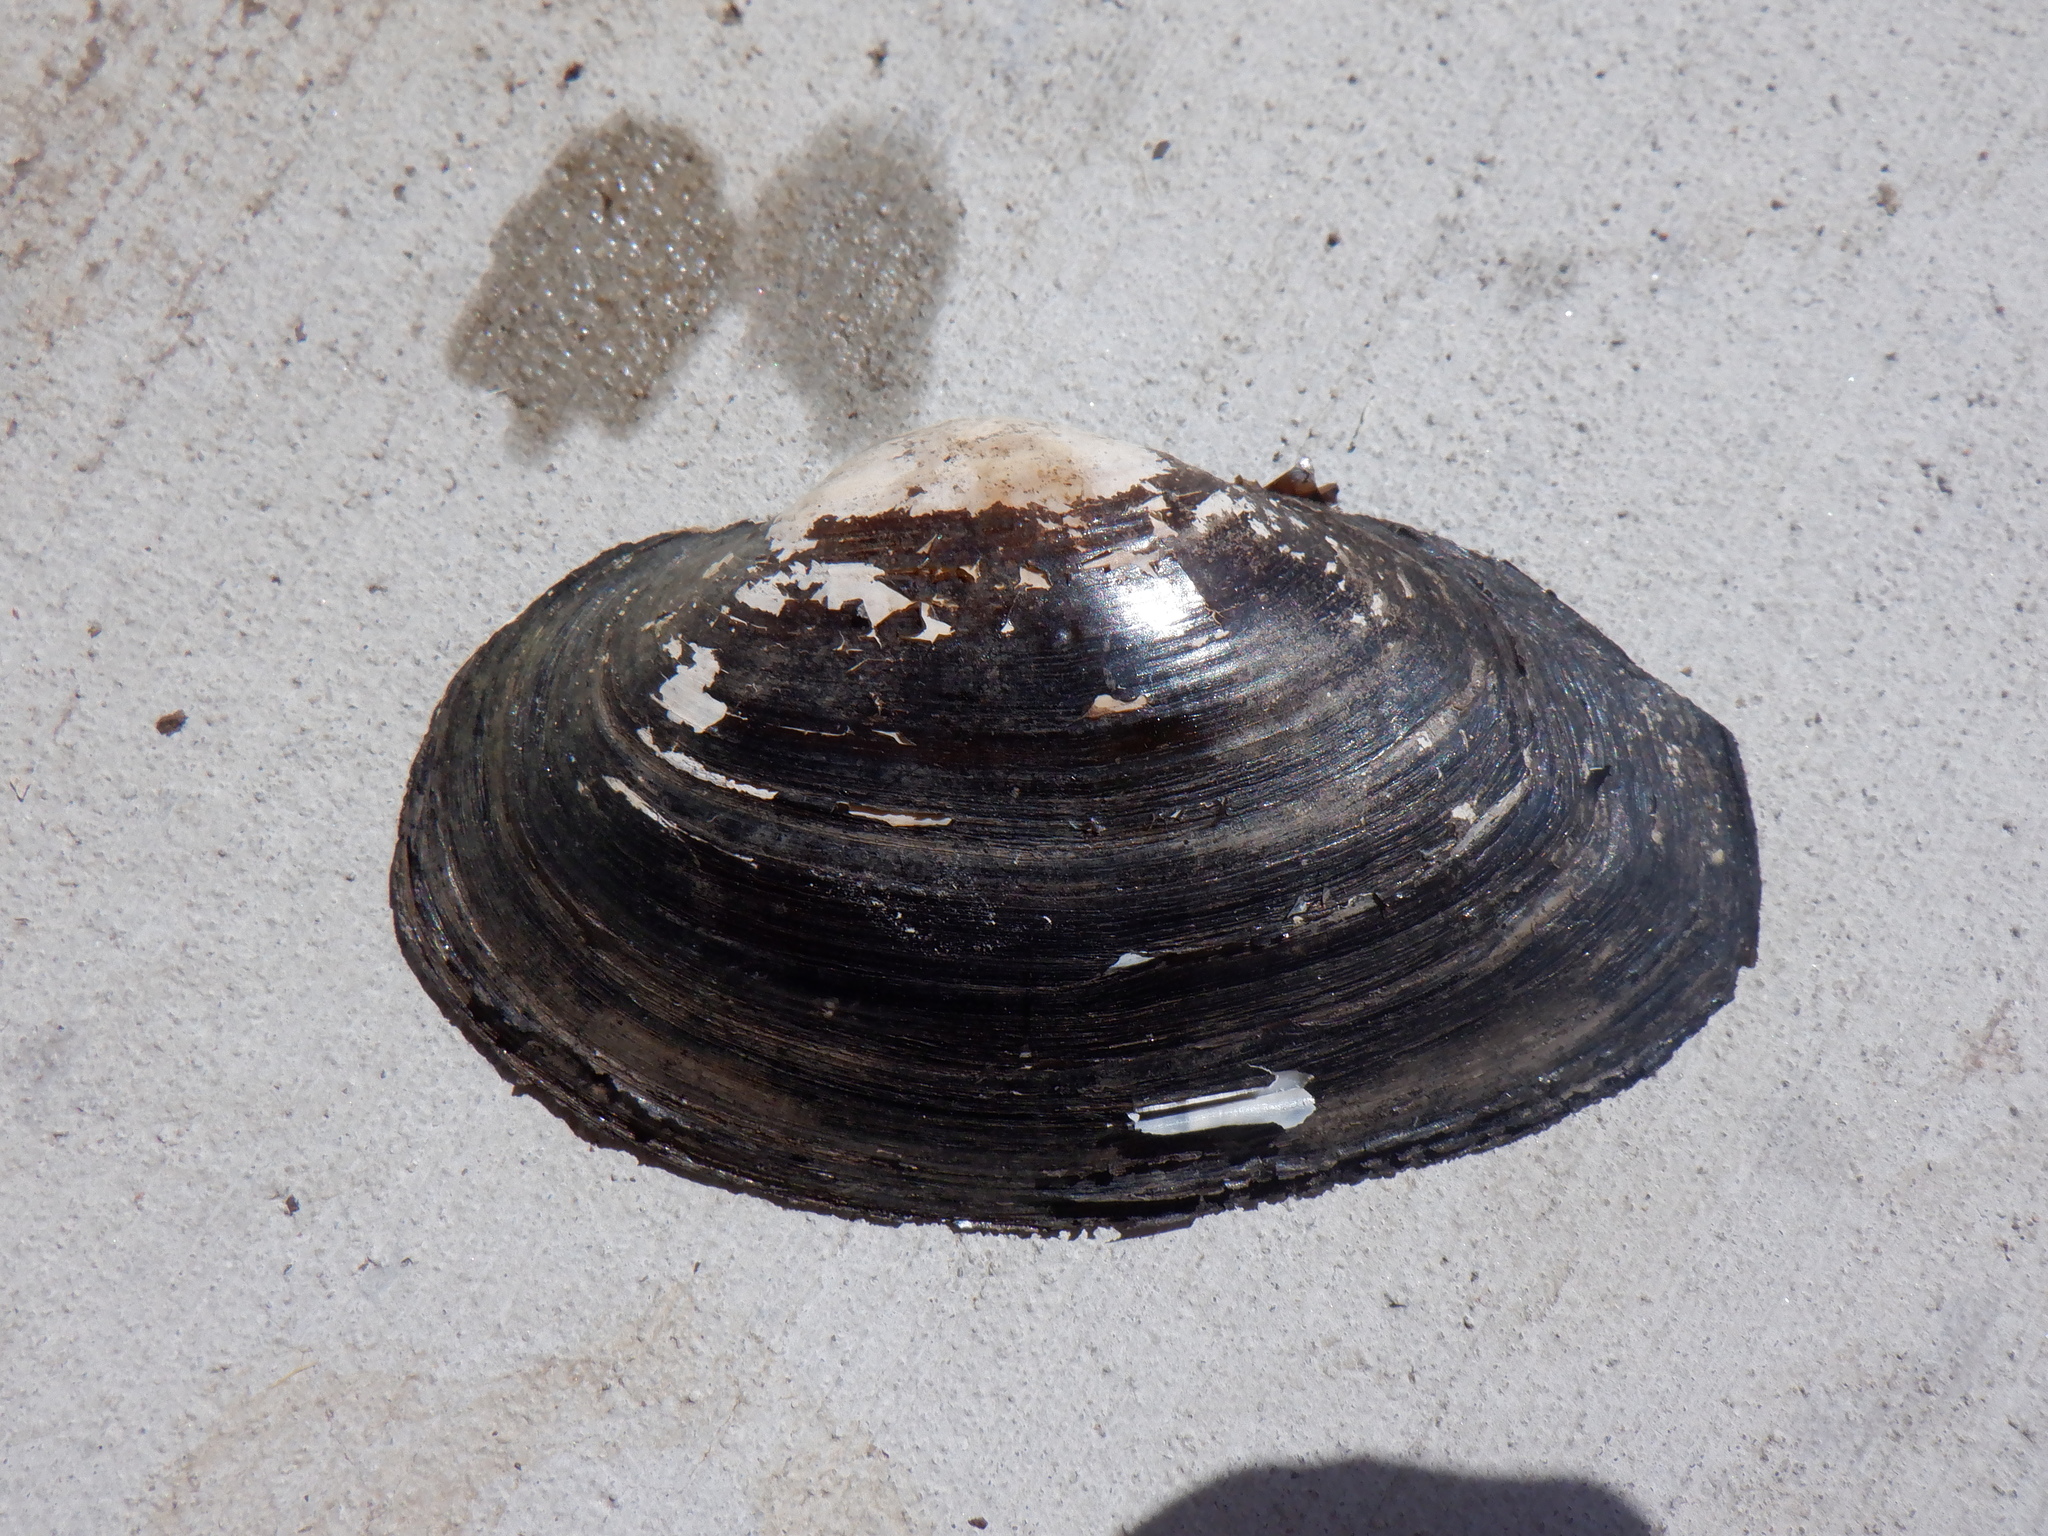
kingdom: Animalia
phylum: Mollusca
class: Bivalvia
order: Unionida
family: Unionidae
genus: Strophitus
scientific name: Strophitus undulatus
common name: Creeper
